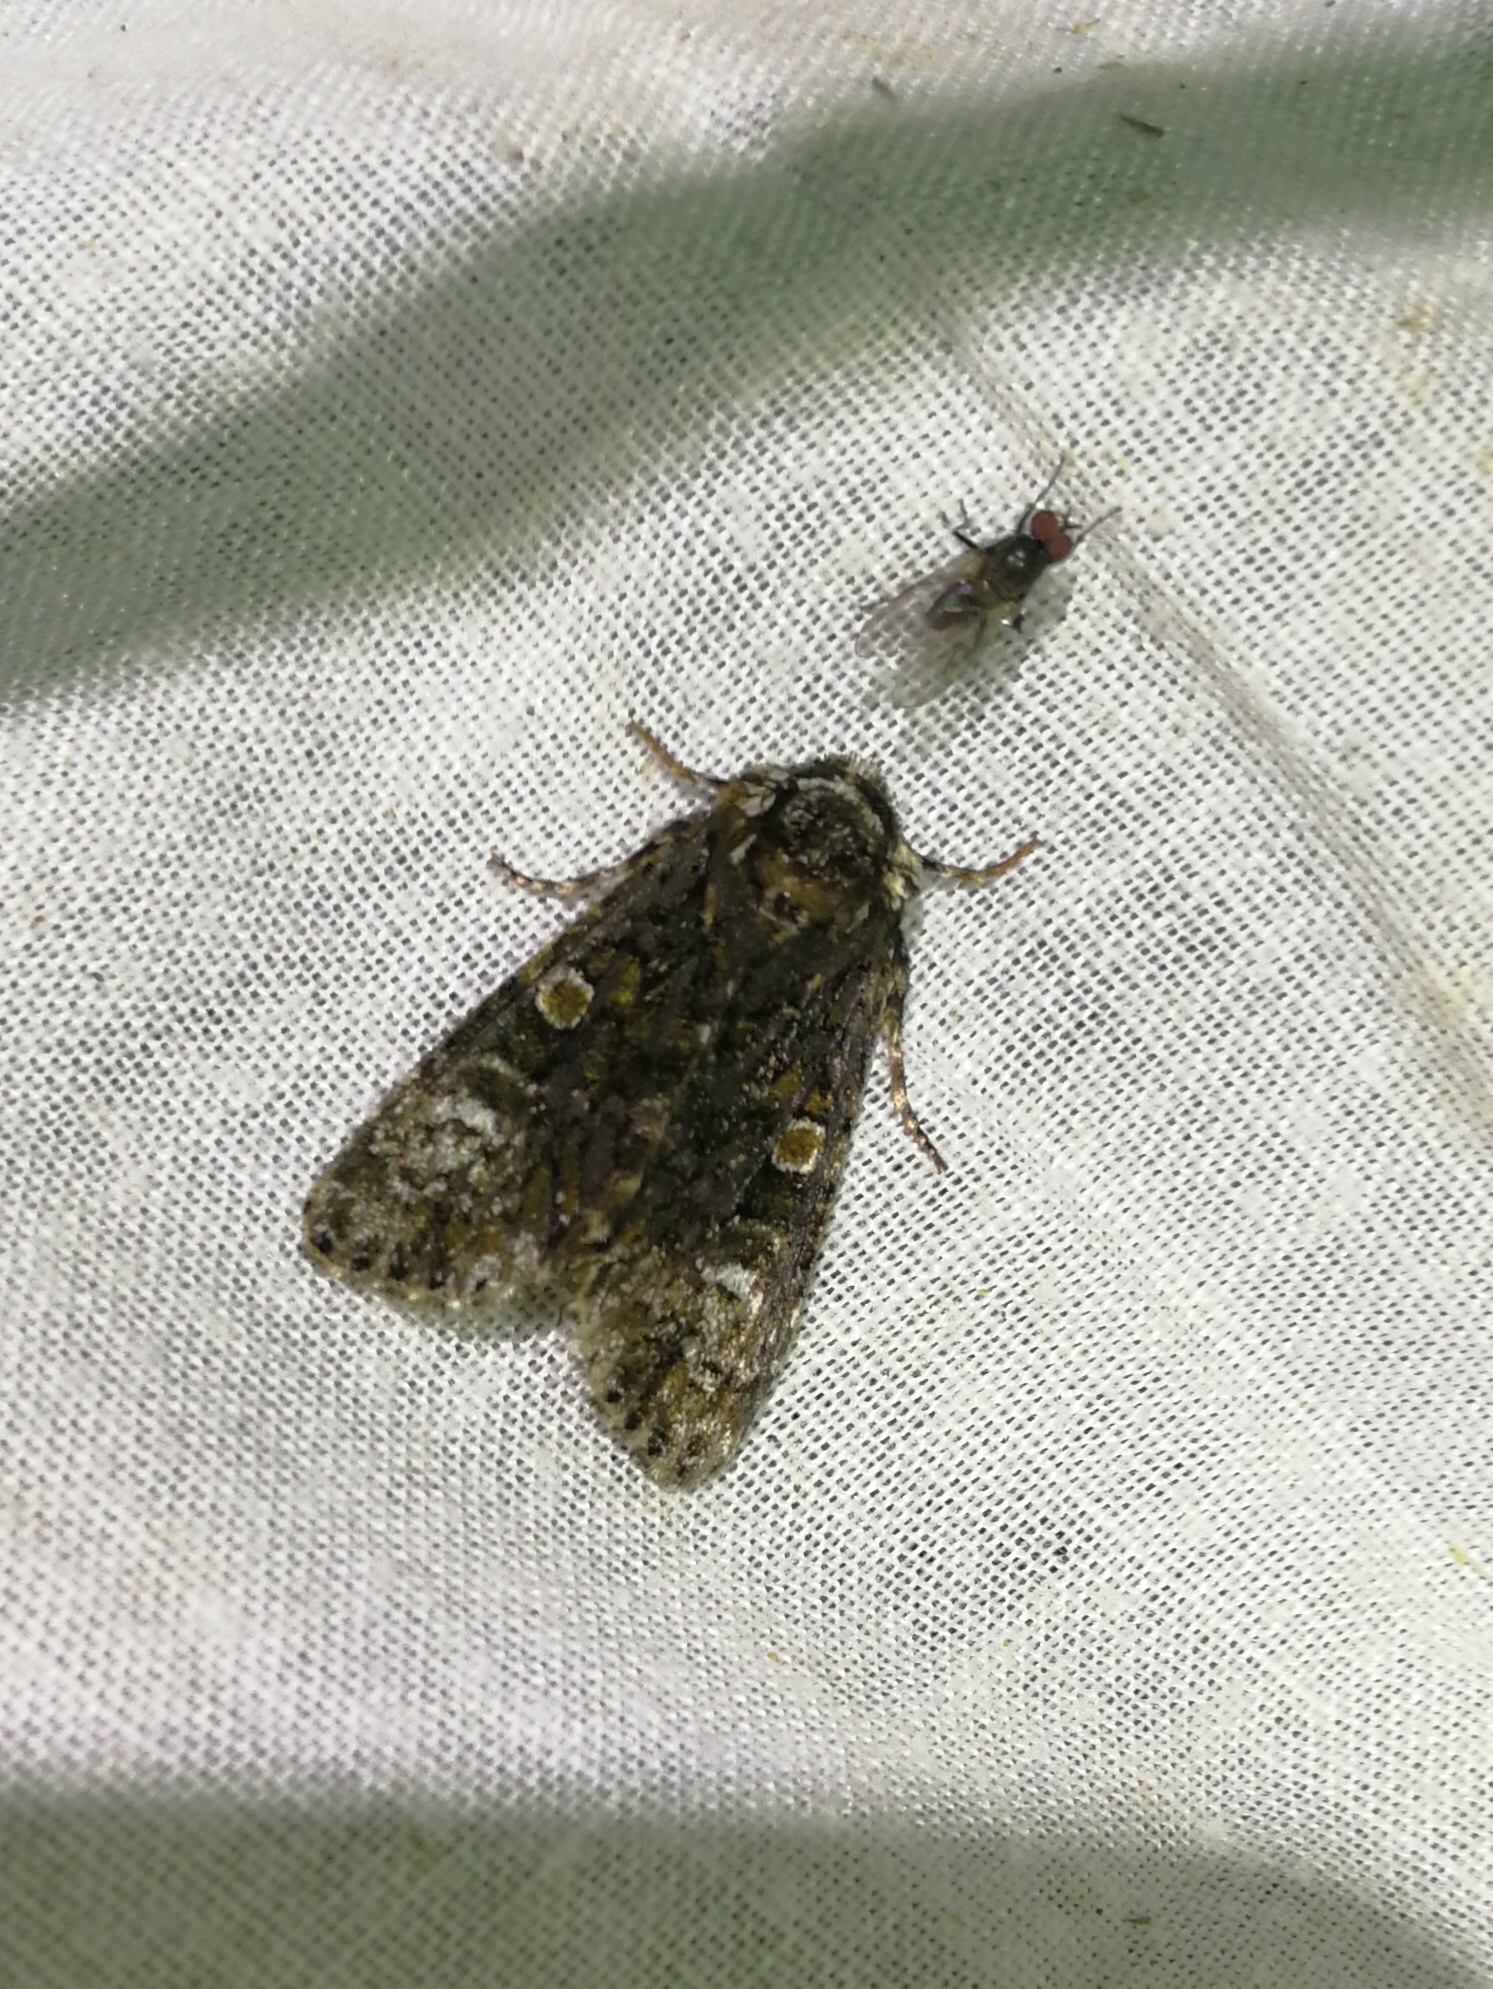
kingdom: Animalia
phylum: Arthropoda
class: Insecta
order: Lepidoptera
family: Noctuidae
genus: Craniophora
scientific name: Craniophora ligustri
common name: Coronet
